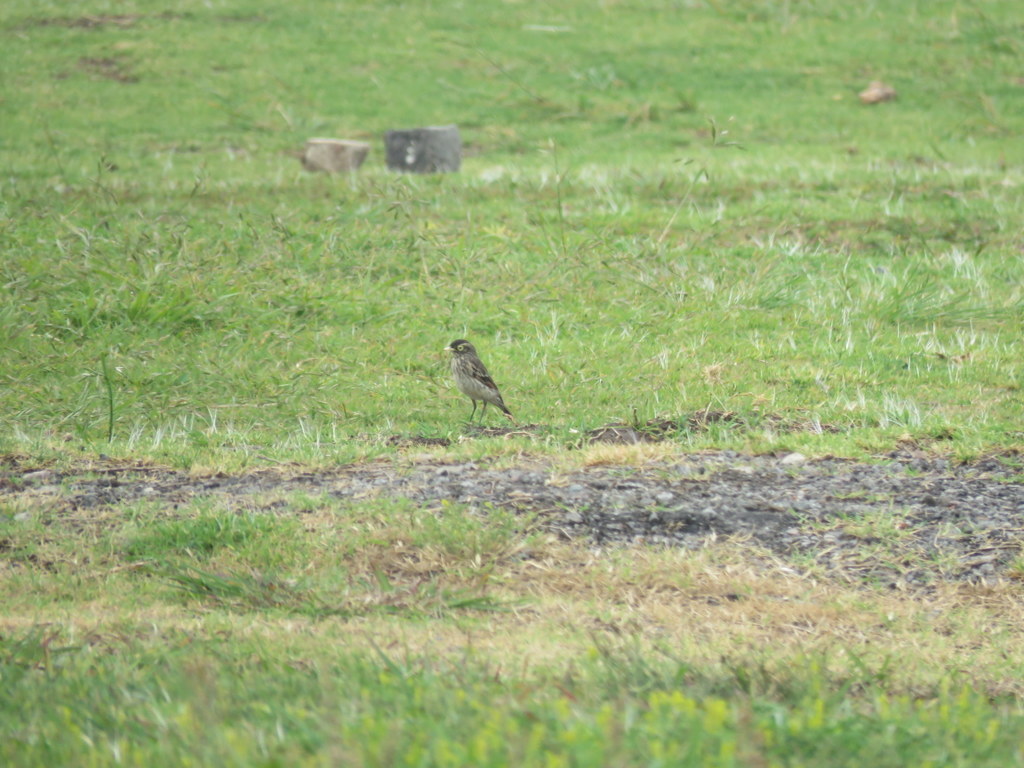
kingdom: Animalia
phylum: Chordata
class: Aves
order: Passeriformes
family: Tyrannidae
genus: Hymenops
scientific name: Hymenops perspicillatus
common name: Spectacled tyrant
